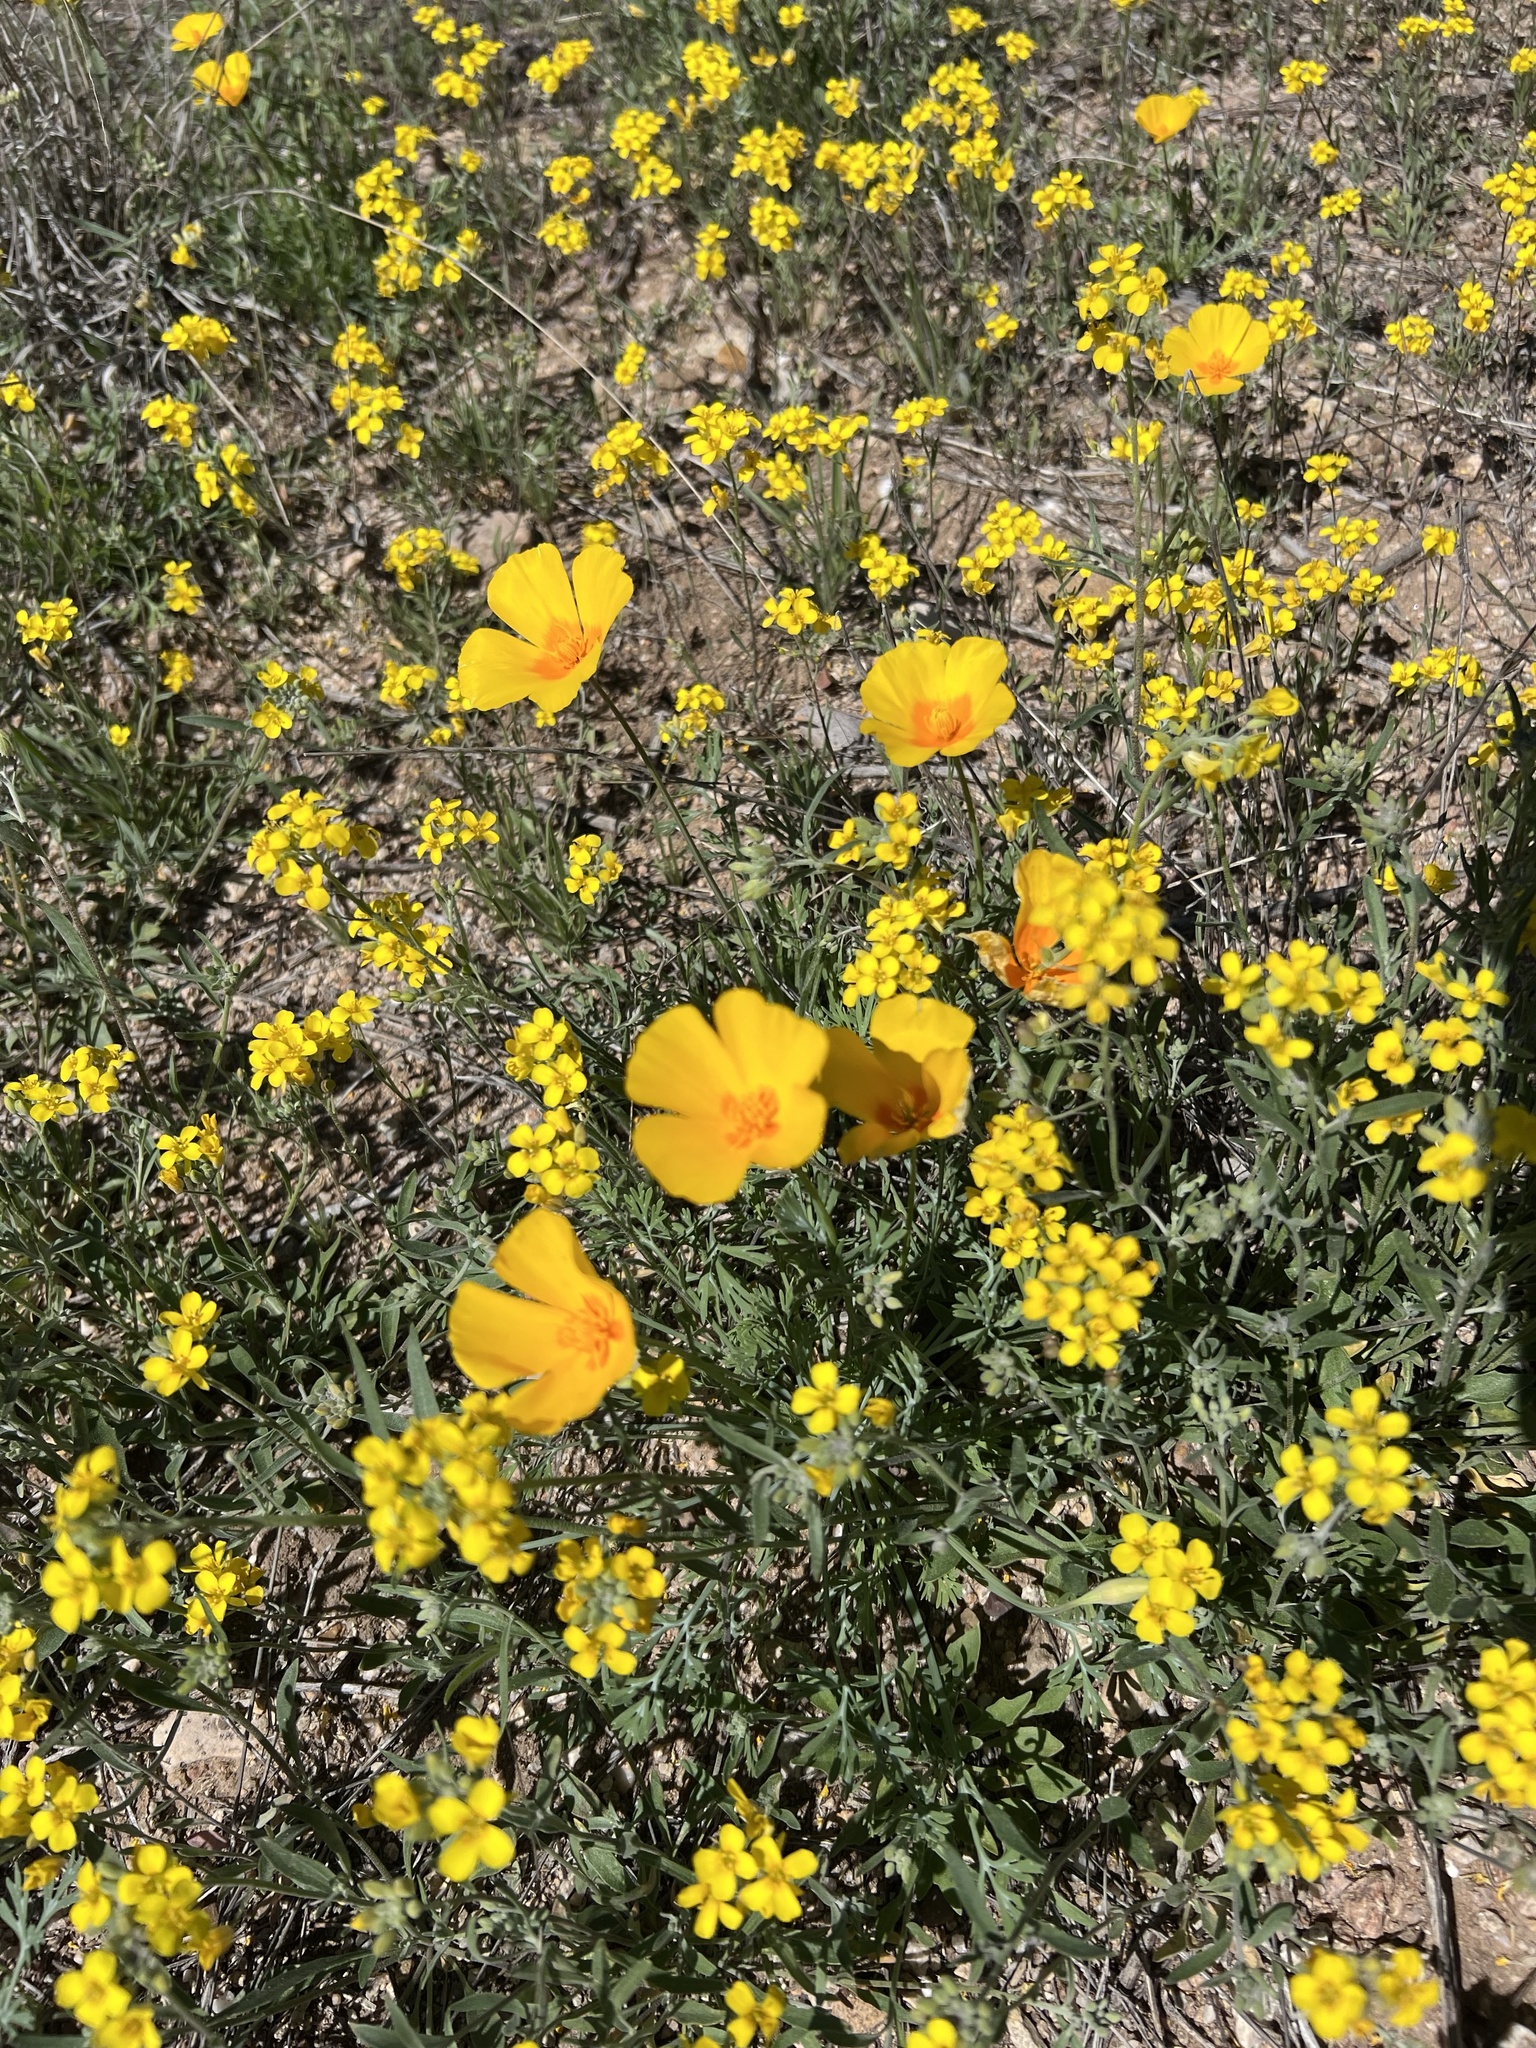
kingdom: Plantae
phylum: Tracheophyta
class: Magnoliopsida
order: Ranunculales
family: Papaveraceae
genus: Eschscholzia
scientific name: Eschscholzia californica
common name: California poppy
